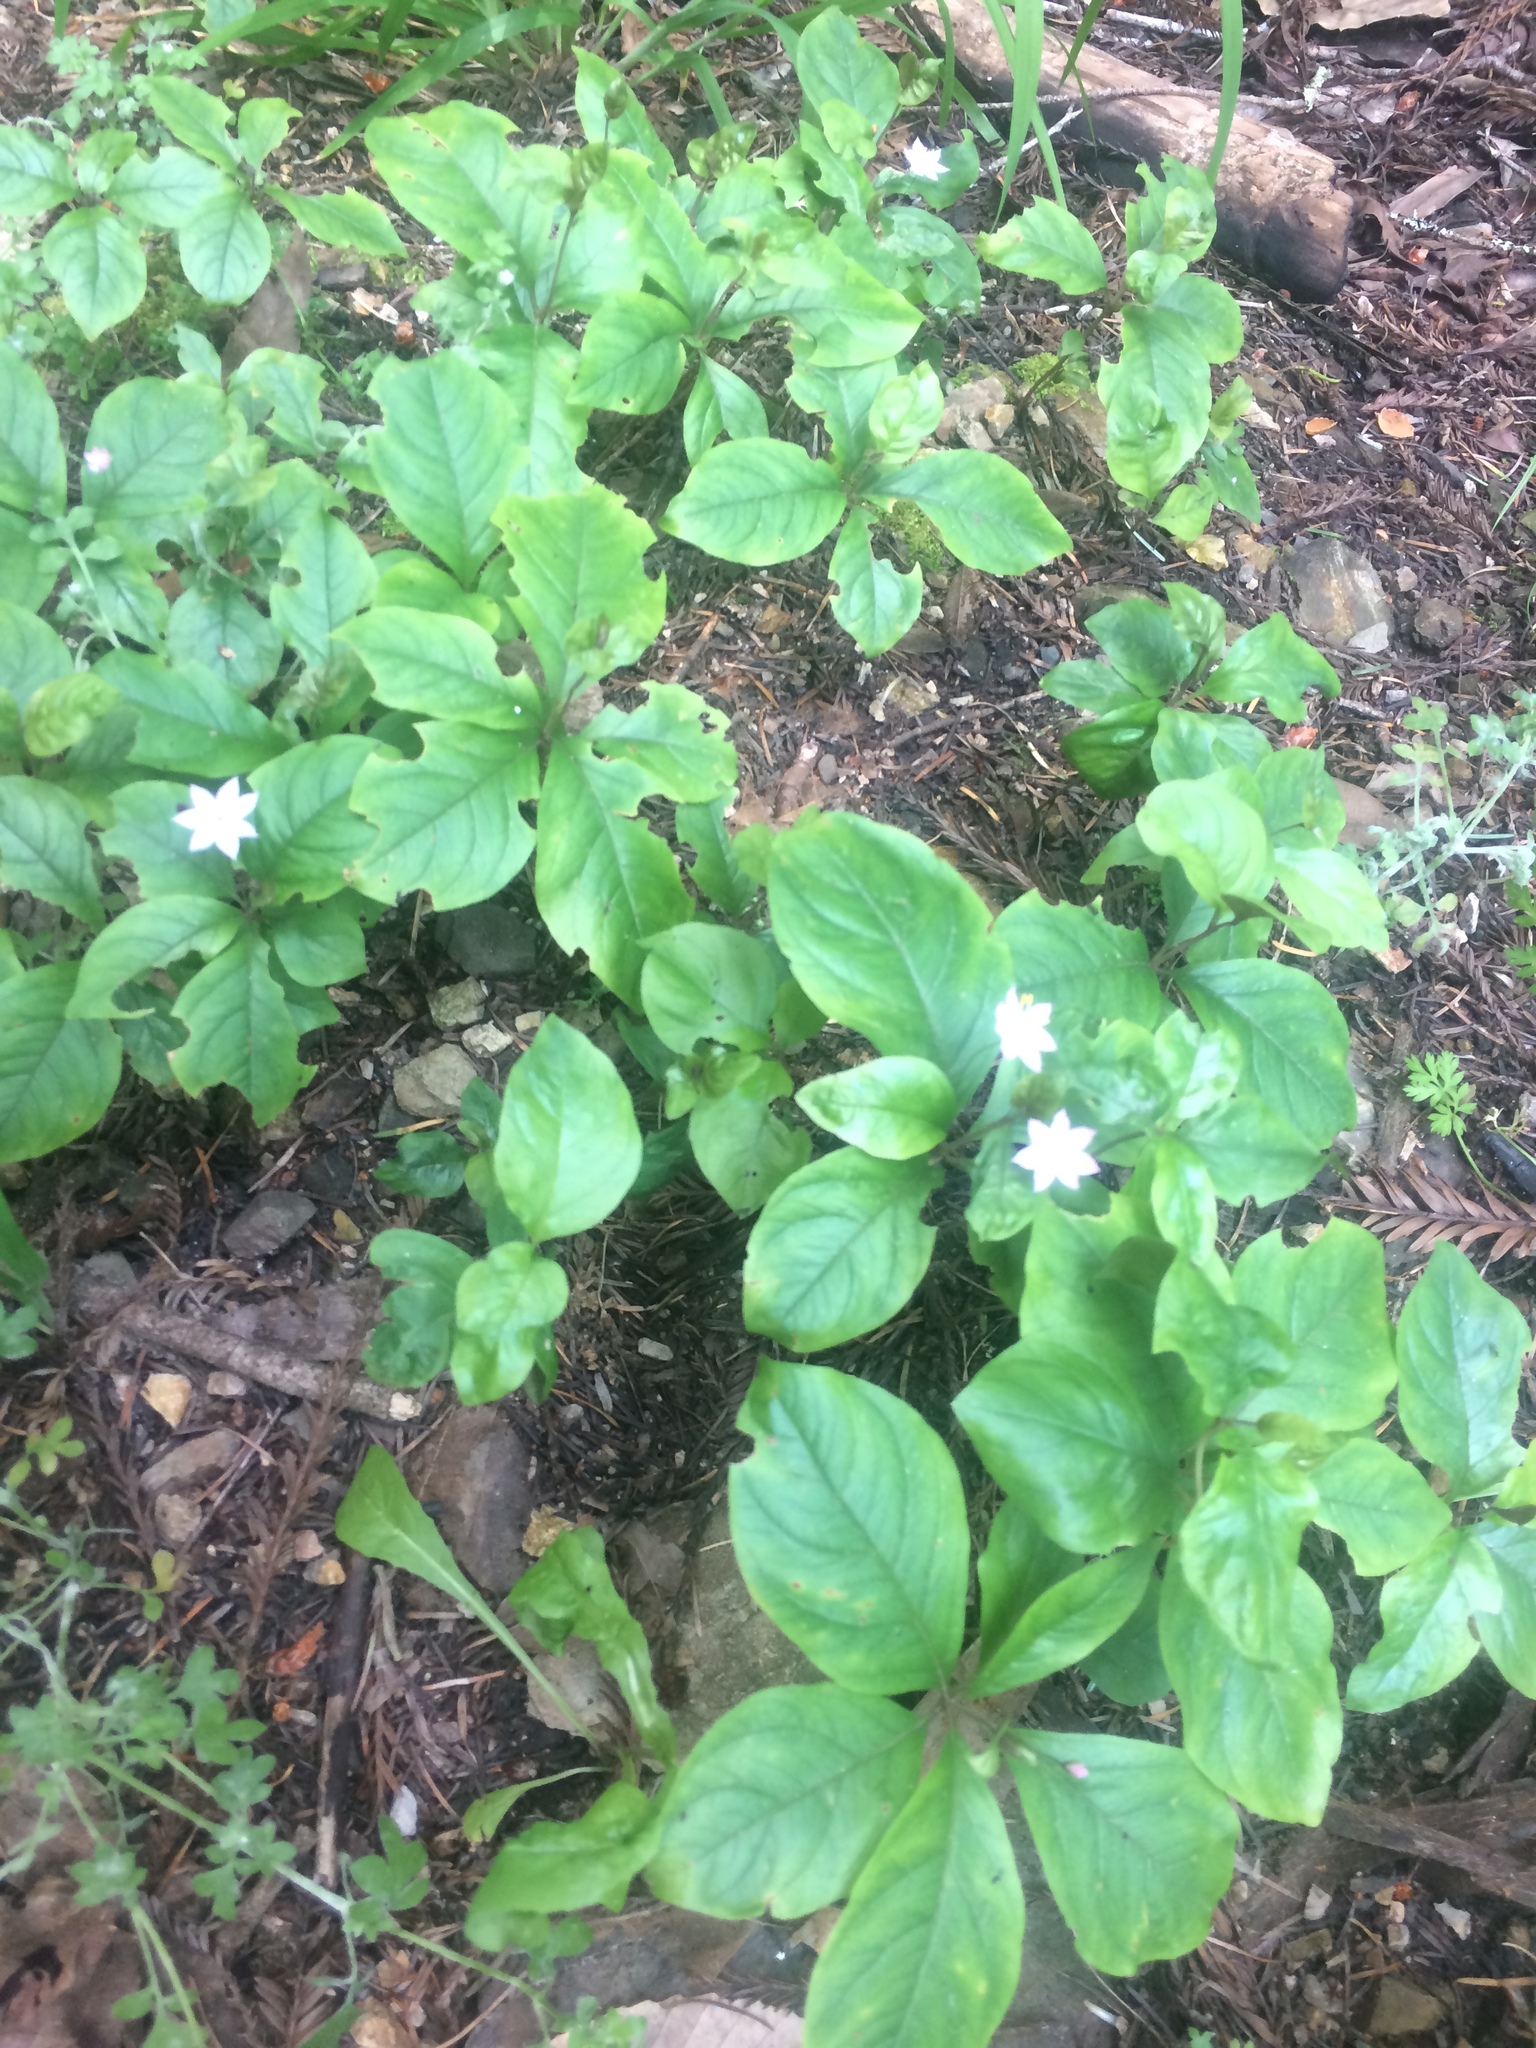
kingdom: Plantae
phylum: Tracheophyta
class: Magnoliopsida
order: Ericales
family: Primulaceae
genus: Lysimachia
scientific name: Lysimachia latifolia
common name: Pacific starflower
